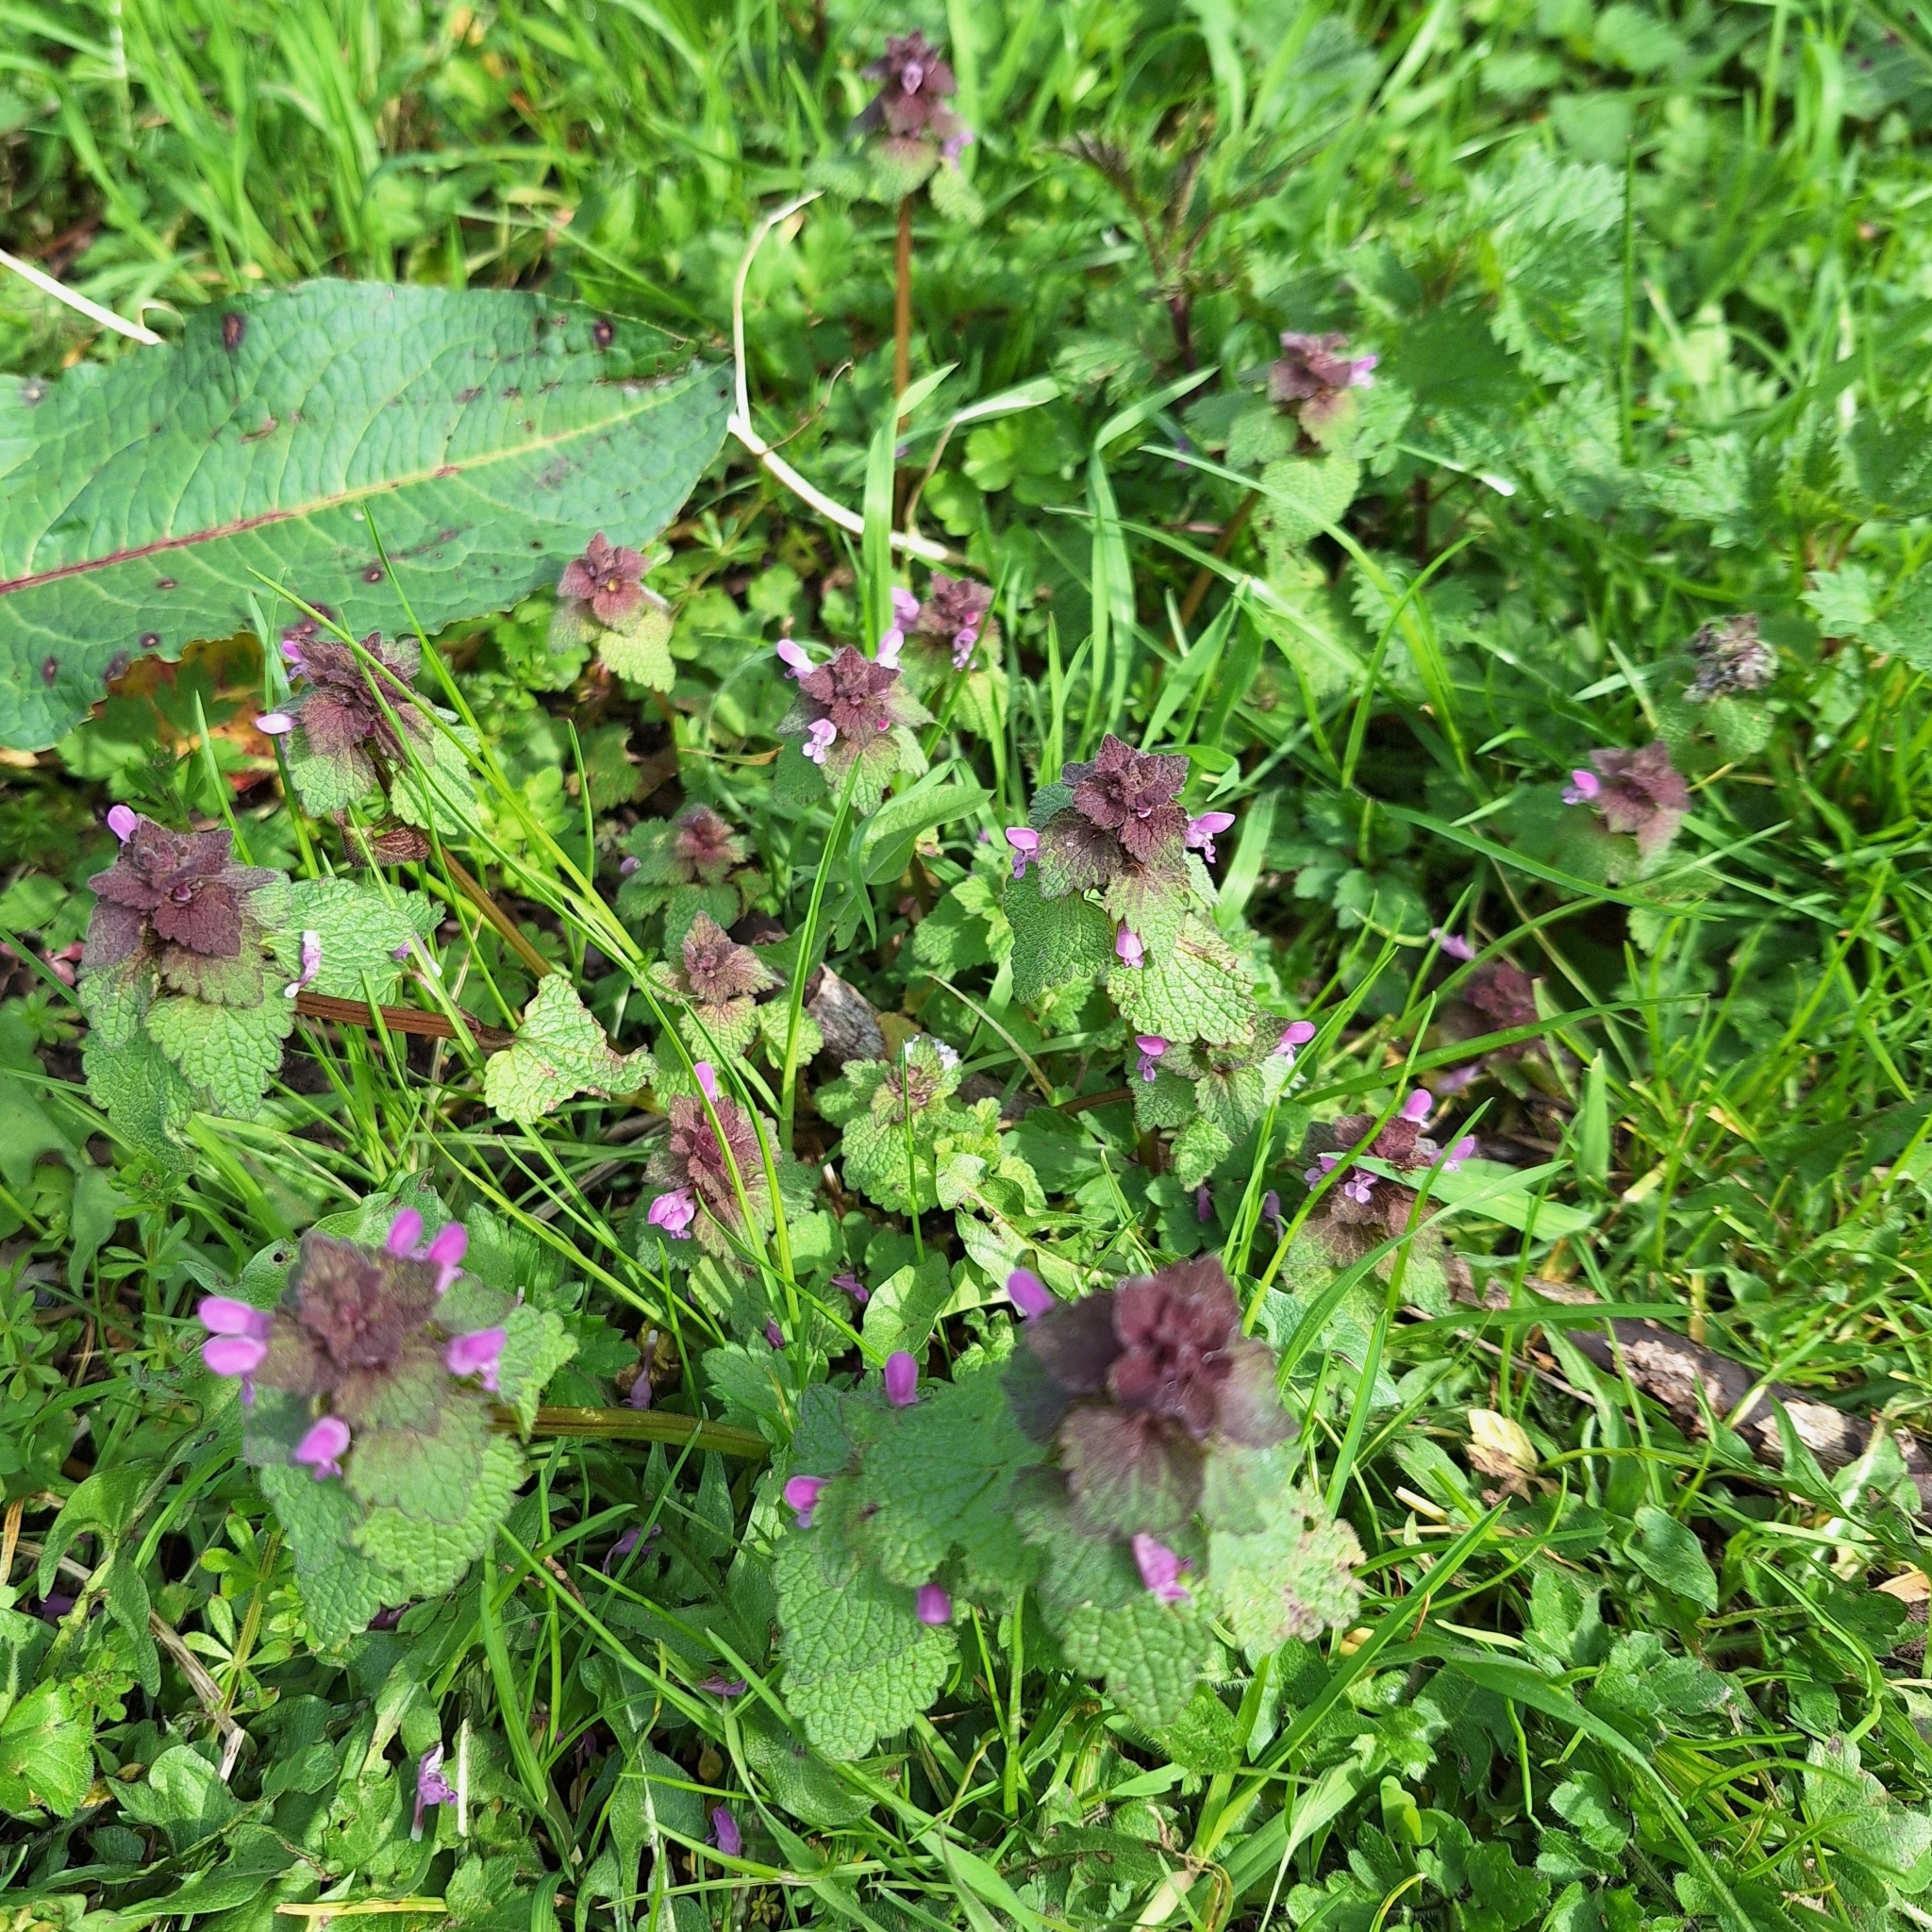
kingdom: Plantae
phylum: Tracheophyta
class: Magnoliopsida
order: Lamiales
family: Lamiaceae
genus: Lamium
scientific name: Lamium purpureum
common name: Red dead-nettle
